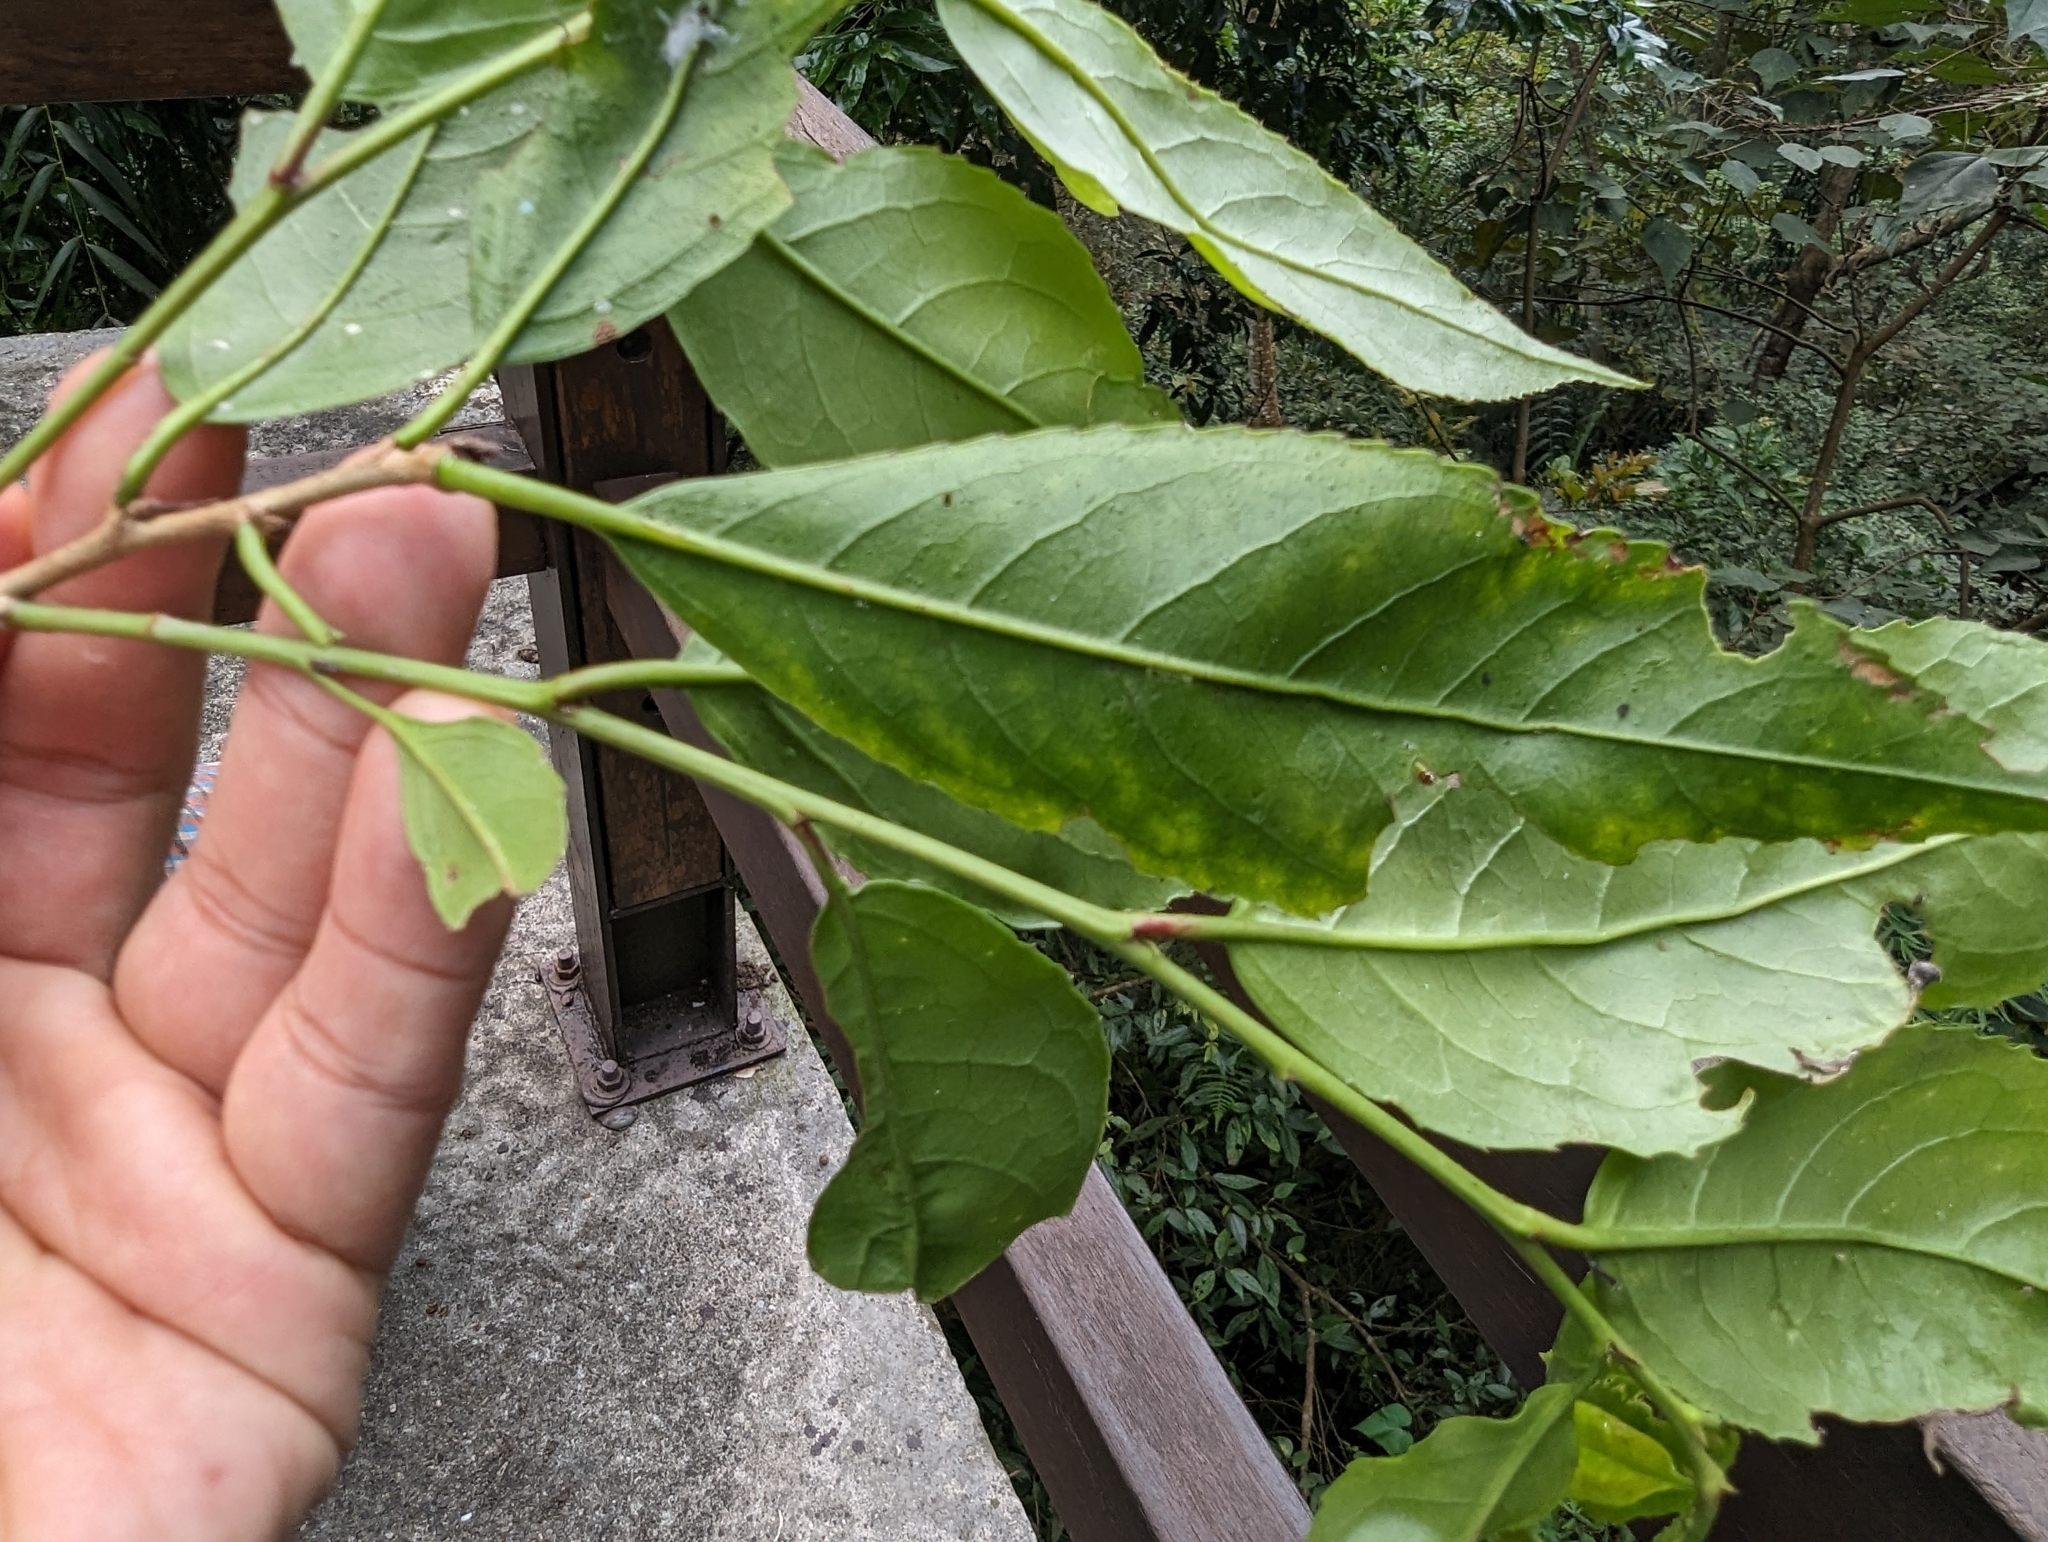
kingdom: Plantae
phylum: Tracheophyta
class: Magnoliopsida
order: Ericales
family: Theaceae
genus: Pyrenaria
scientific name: Pyrenaria microcarpa
